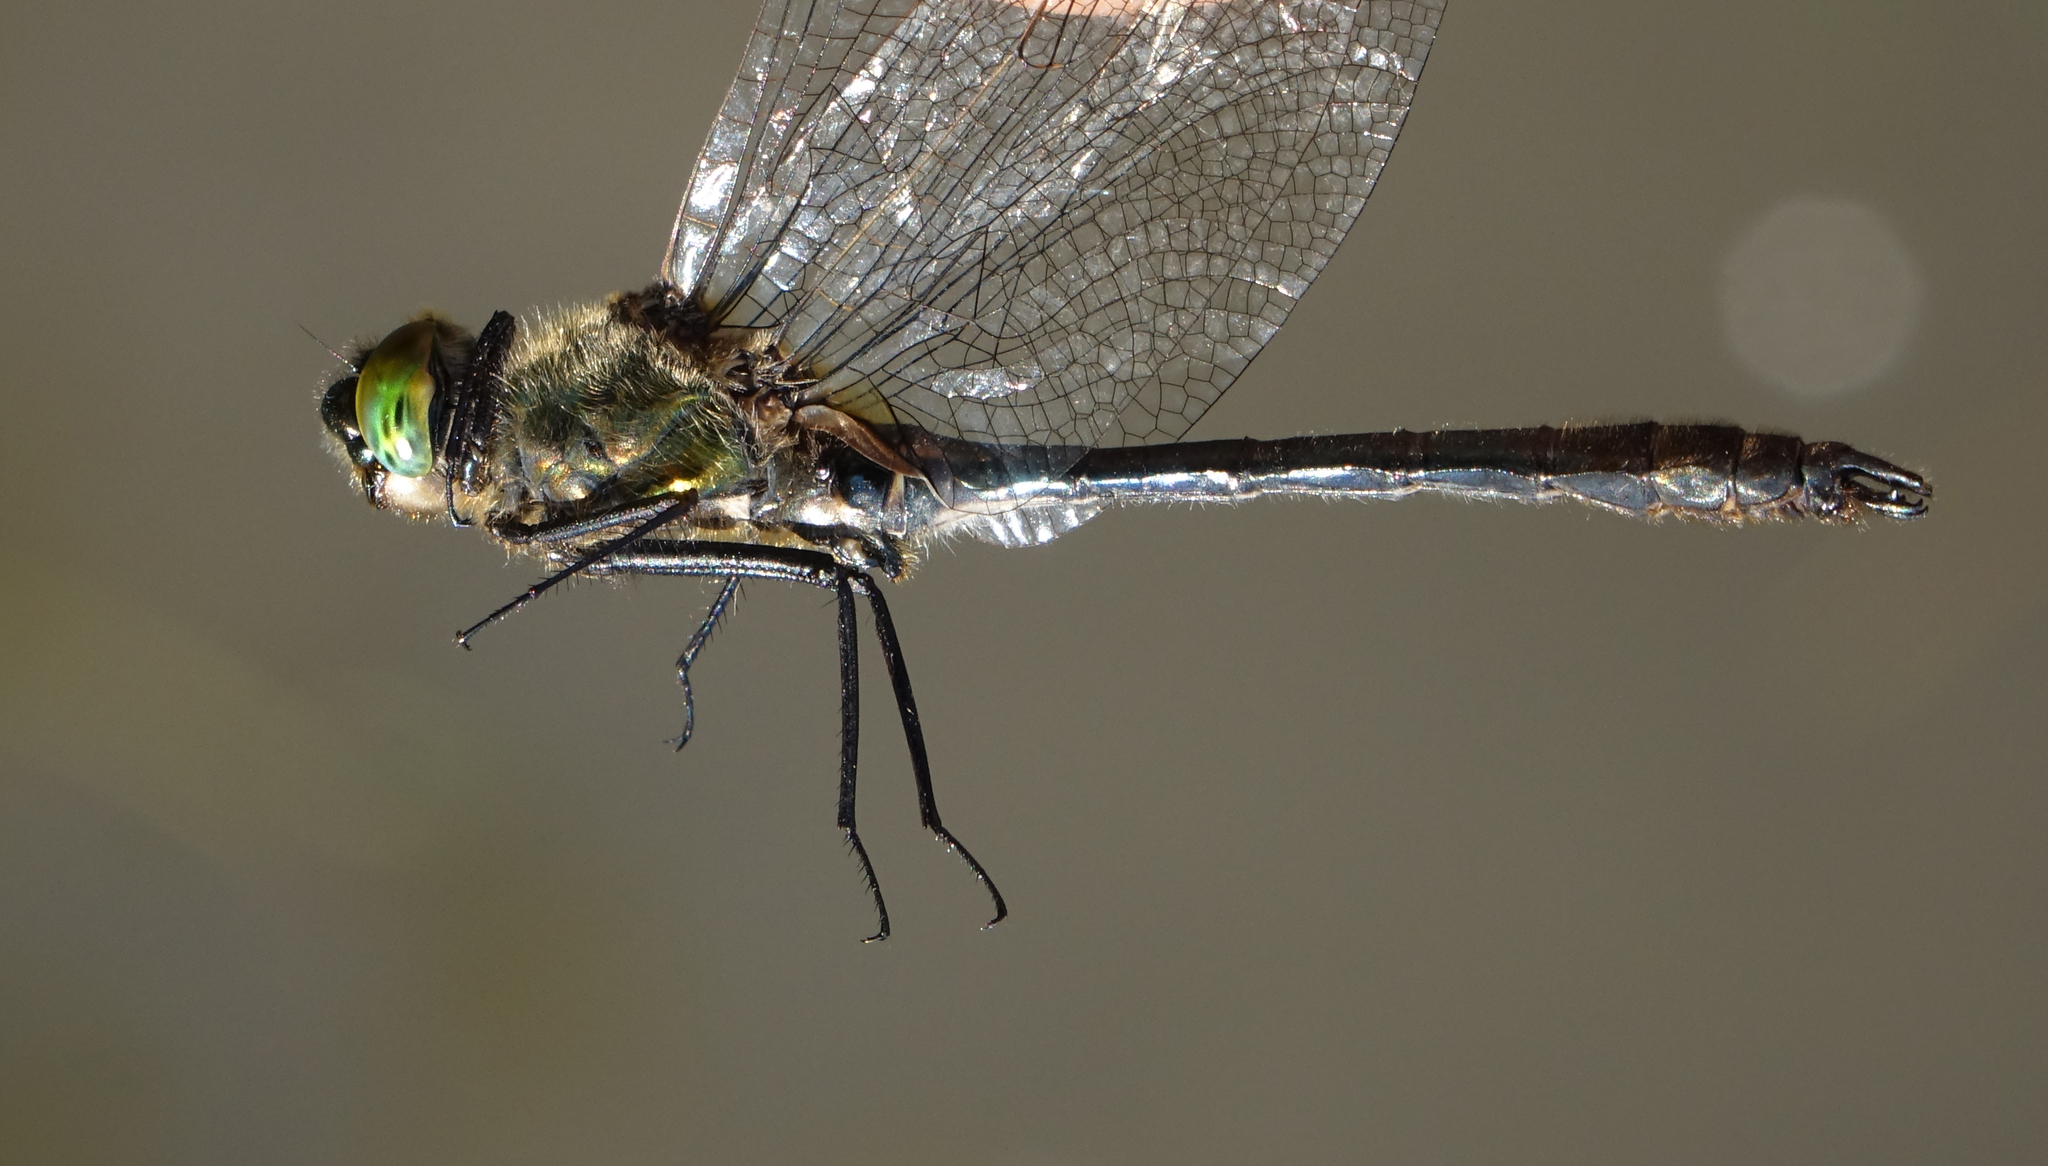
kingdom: Animalia
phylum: Arthropoda
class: Insecta
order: Odonata
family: Corduliidae
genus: Cordulia
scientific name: Cordulia aenea
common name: Downy emerald
